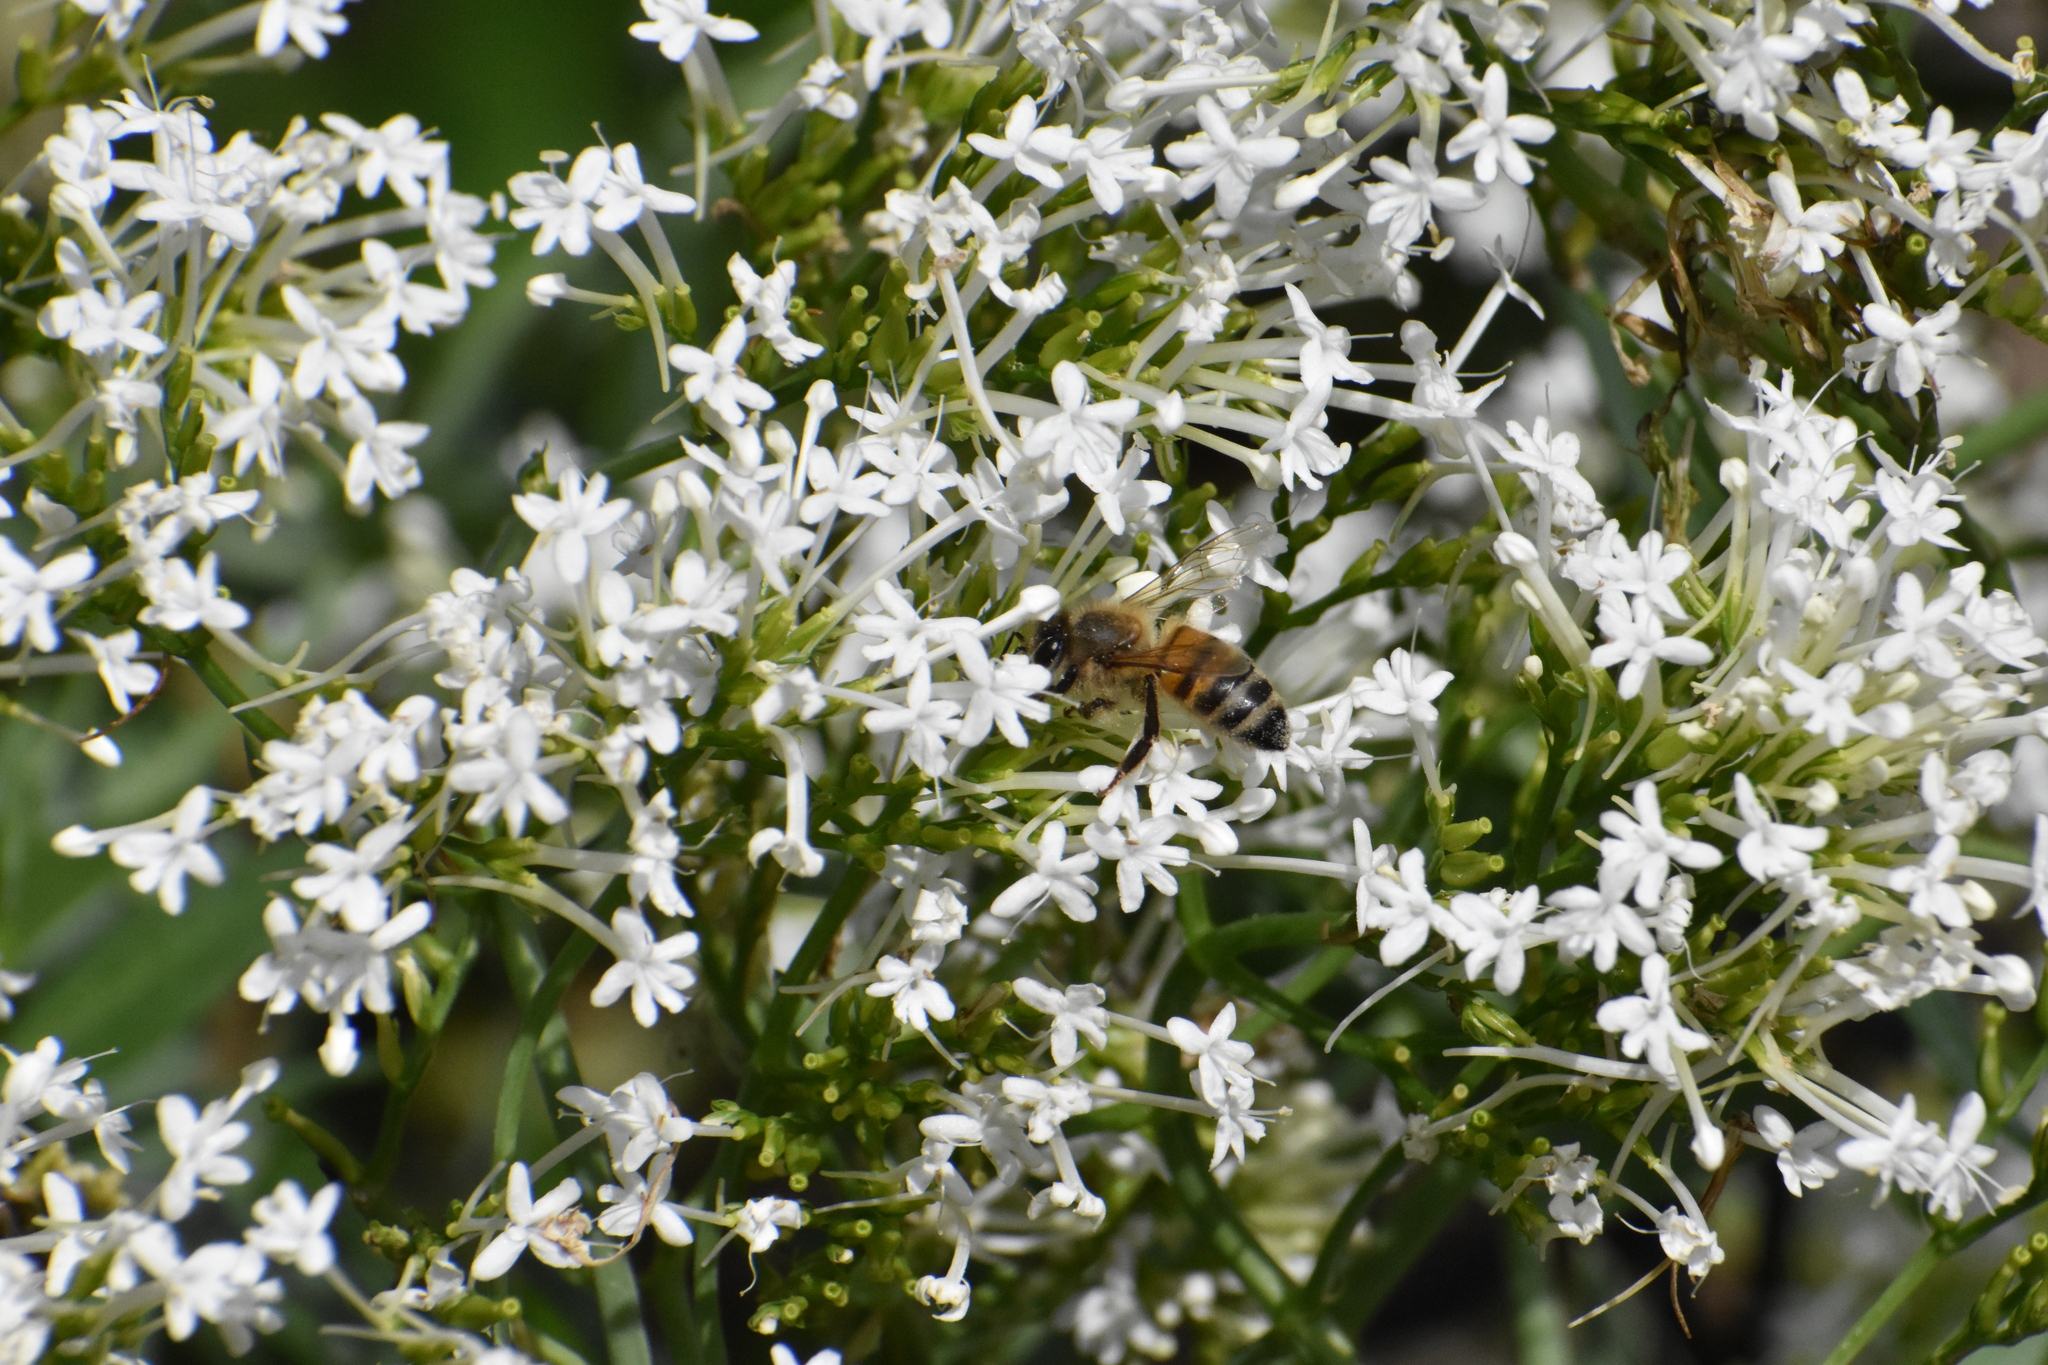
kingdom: Animalia
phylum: Arthropoda
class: Insecta
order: Hymenoptera
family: Apidae
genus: Apis
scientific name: Apis mellifera
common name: Honey bee
